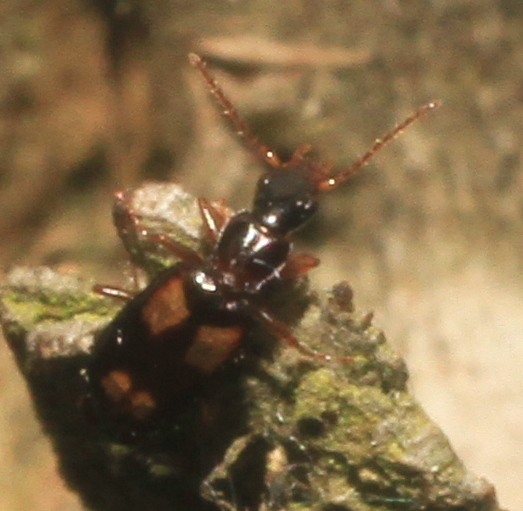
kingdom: Animalia
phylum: Arthropoda
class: Insecta
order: Coleoptera
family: Carabidae
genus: Calodromius
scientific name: Calodromius spilotus
